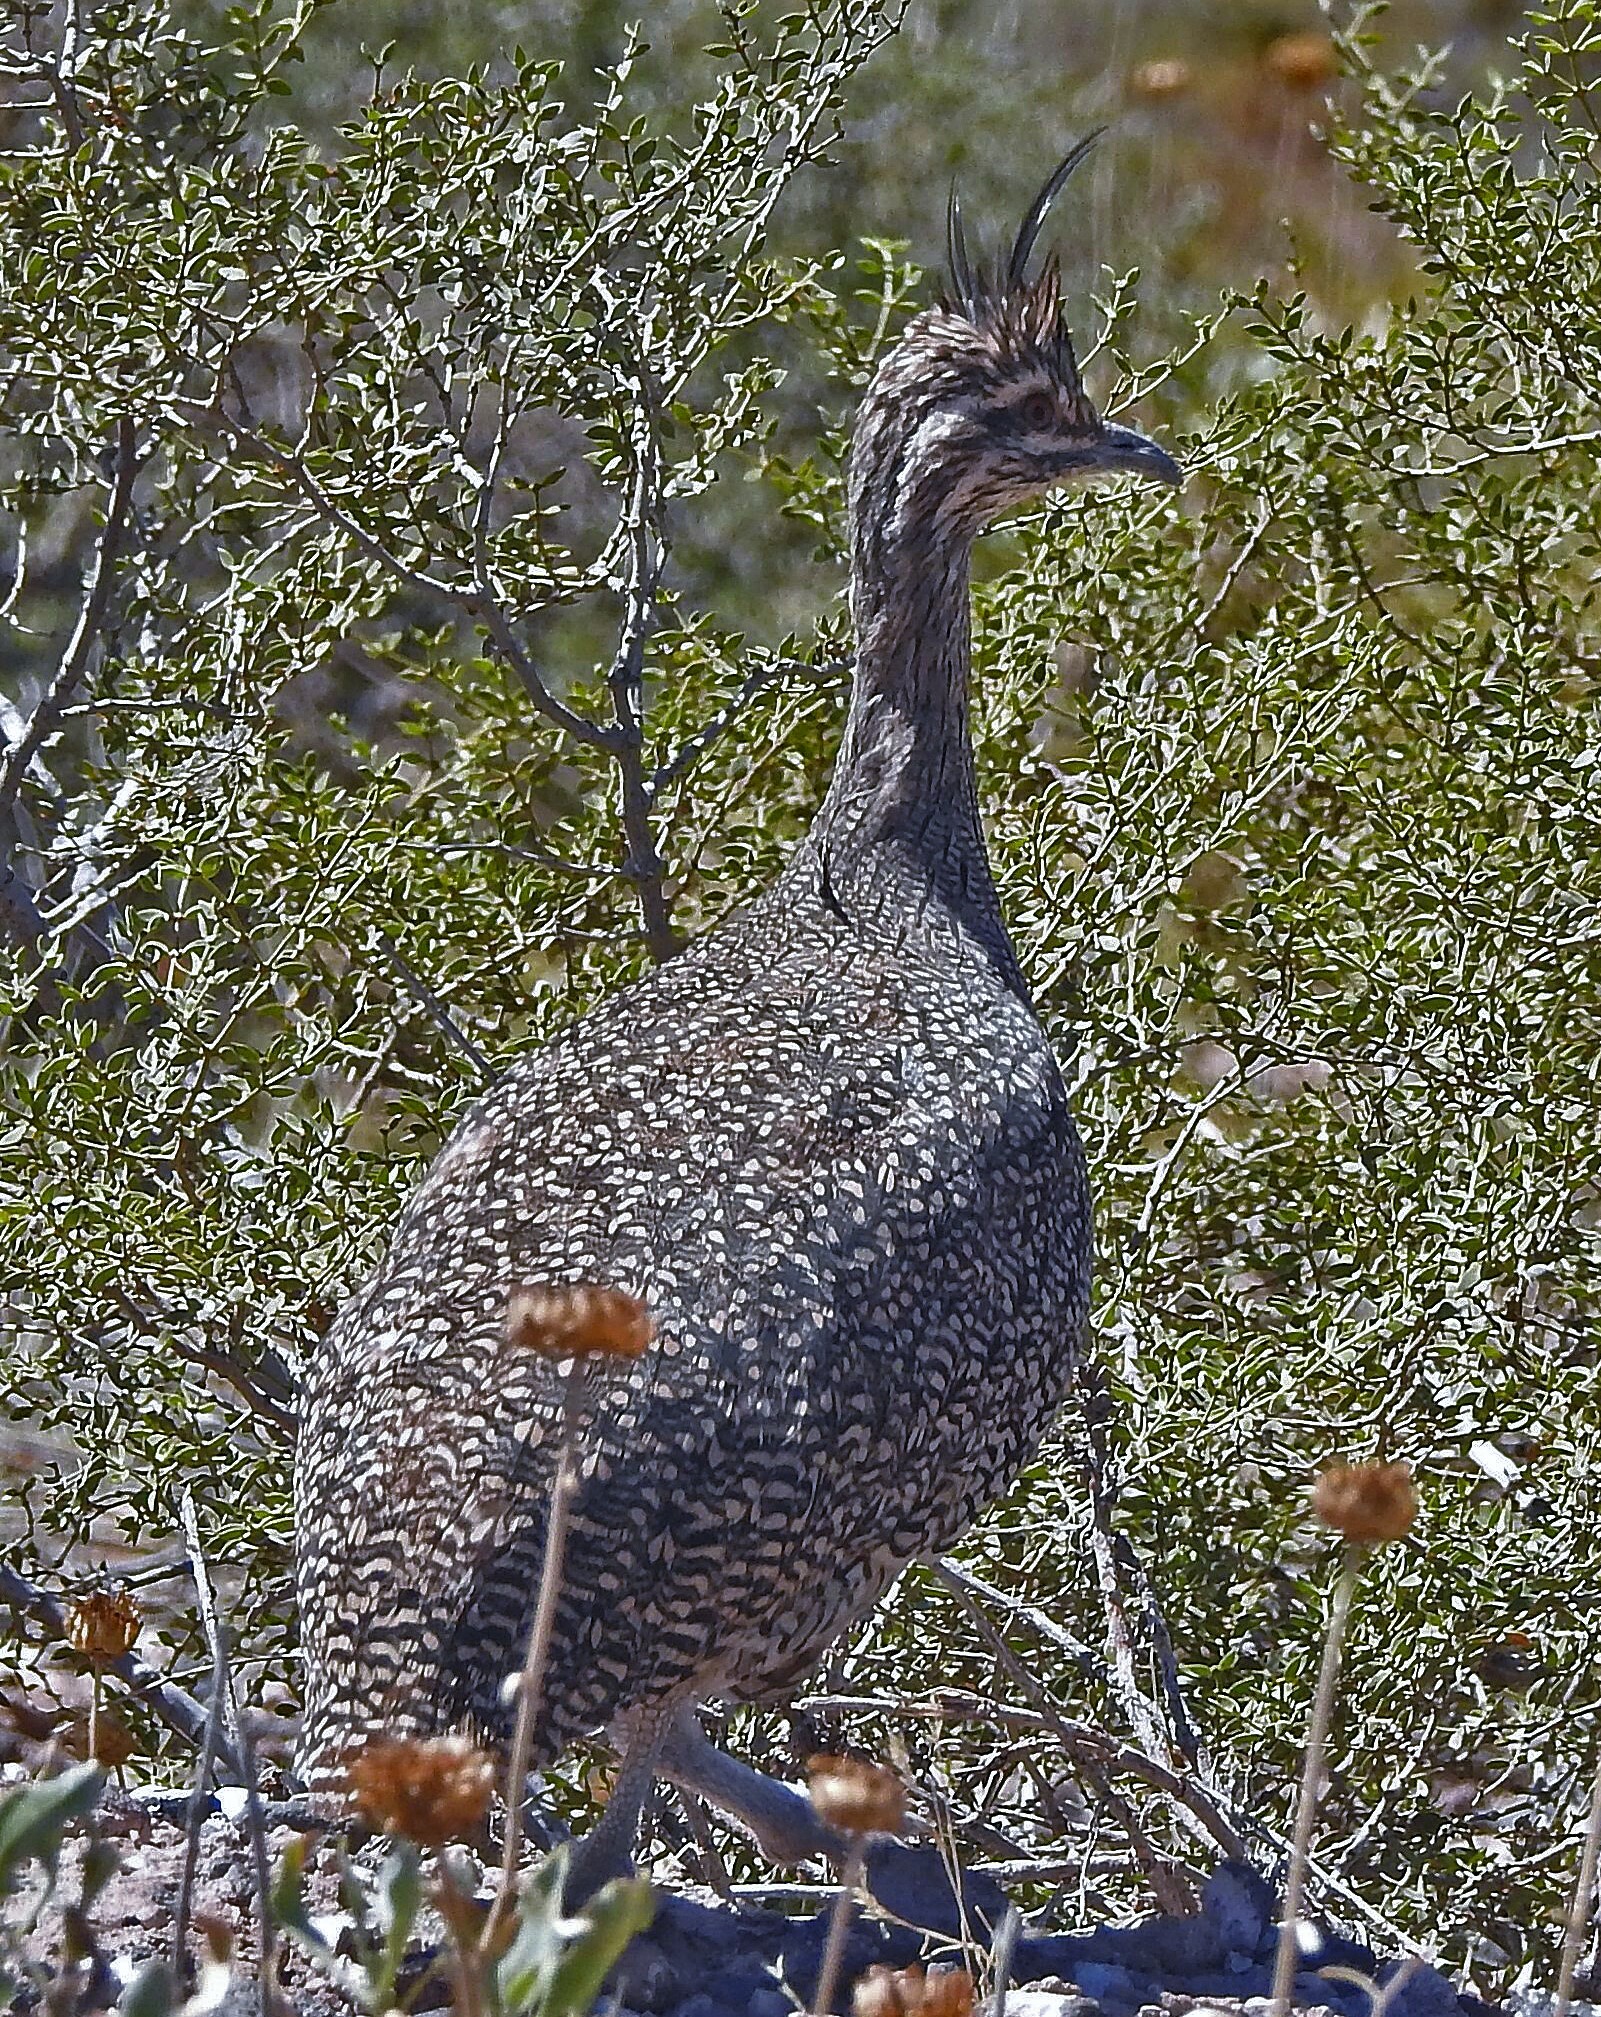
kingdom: Animalia
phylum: Chordata
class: Aves
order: Tinamiformes
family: Tinamidae
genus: Eudromia
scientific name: Eudromia elegans
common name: Elegant crested tinamou
